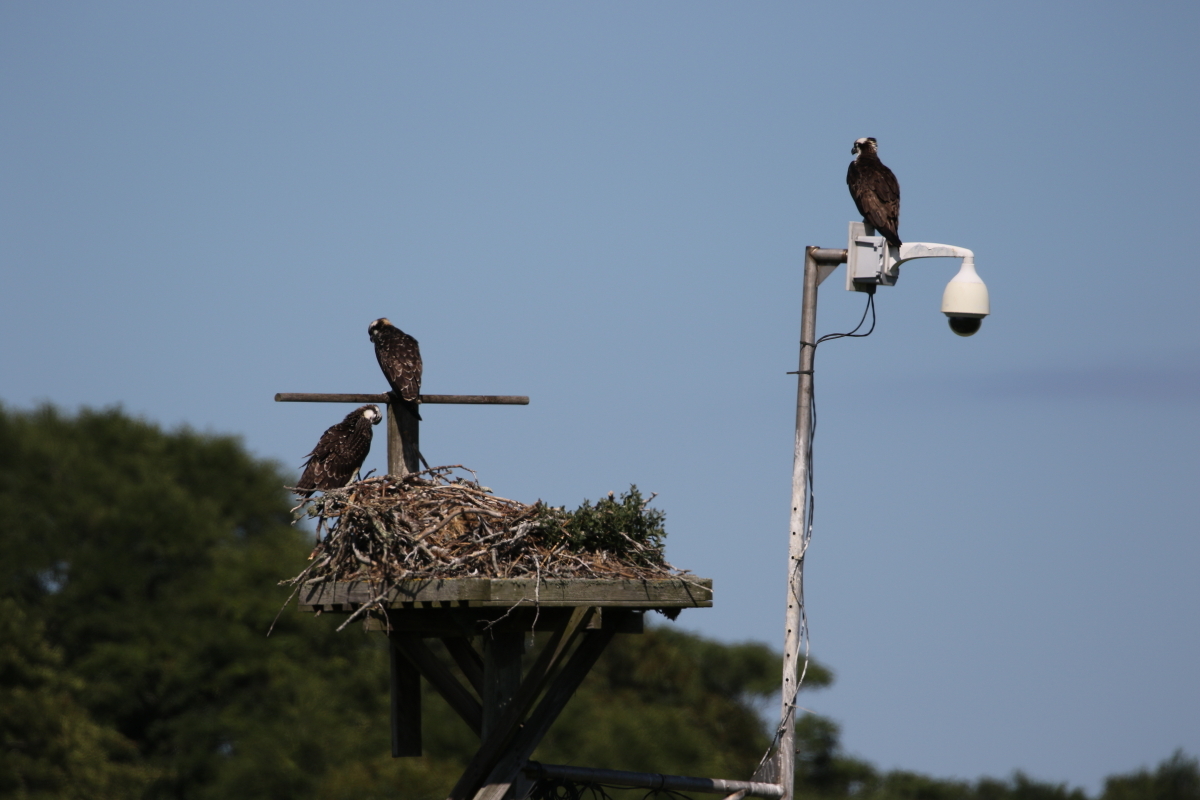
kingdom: Animalia
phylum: Chordata
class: Aves
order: Accipitriformes
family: Pandionidae
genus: Pandion
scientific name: Pandion haliaetus
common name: Osprey
